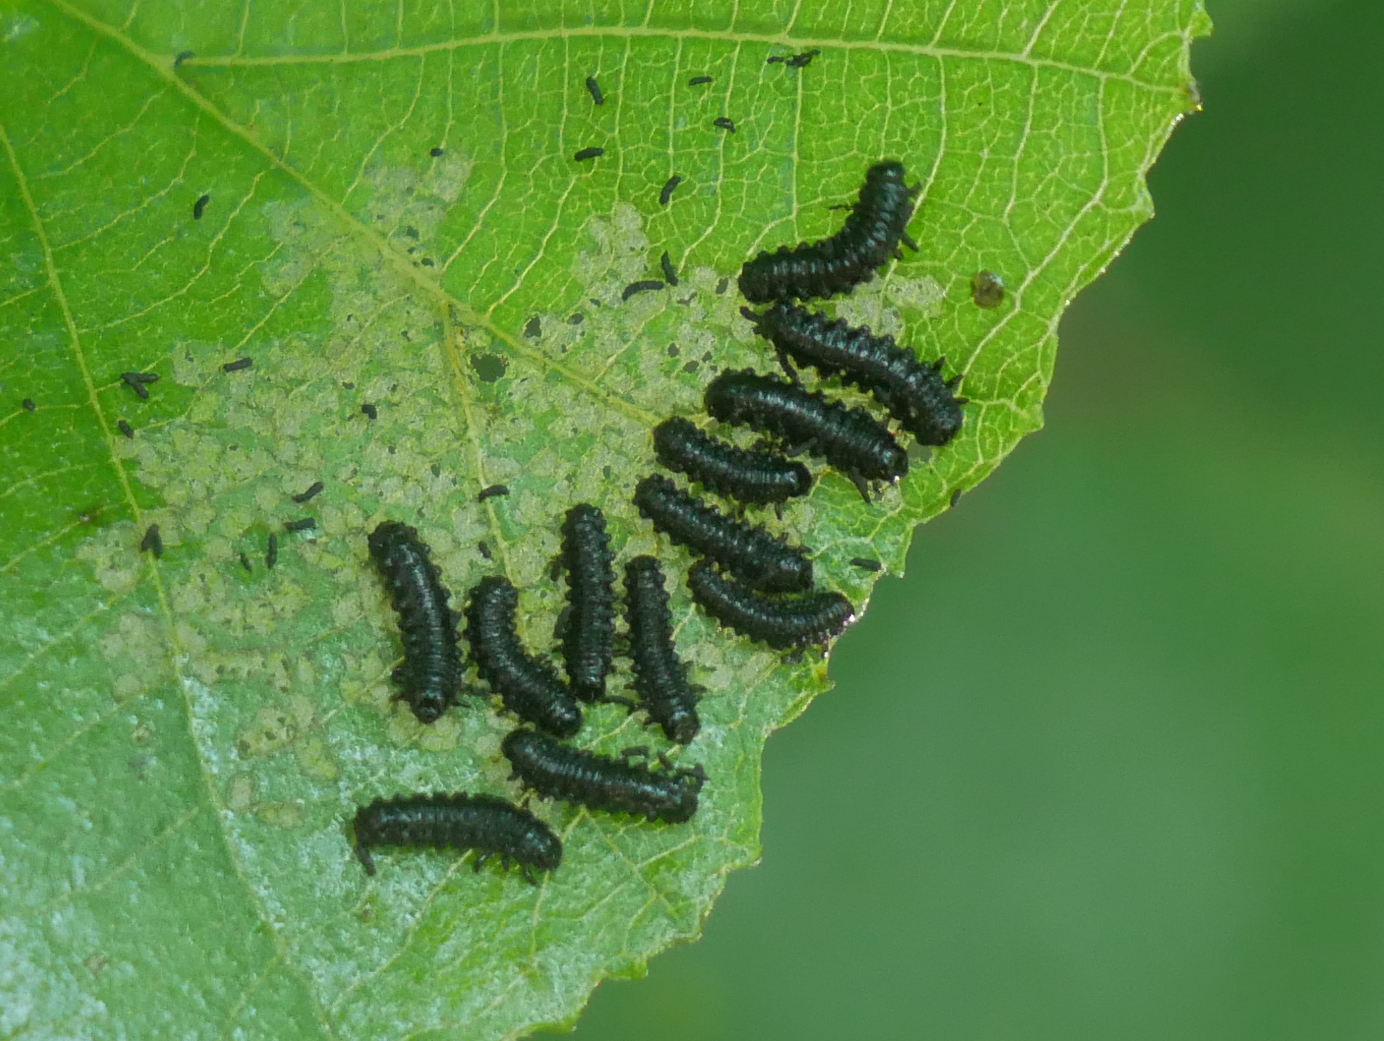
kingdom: Animalia
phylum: Arthropoda
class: Insecta
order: Coleoptera
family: Chrysomelidae
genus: Agelastica
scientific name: Agelastica alni
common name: Alder leaf beetle
